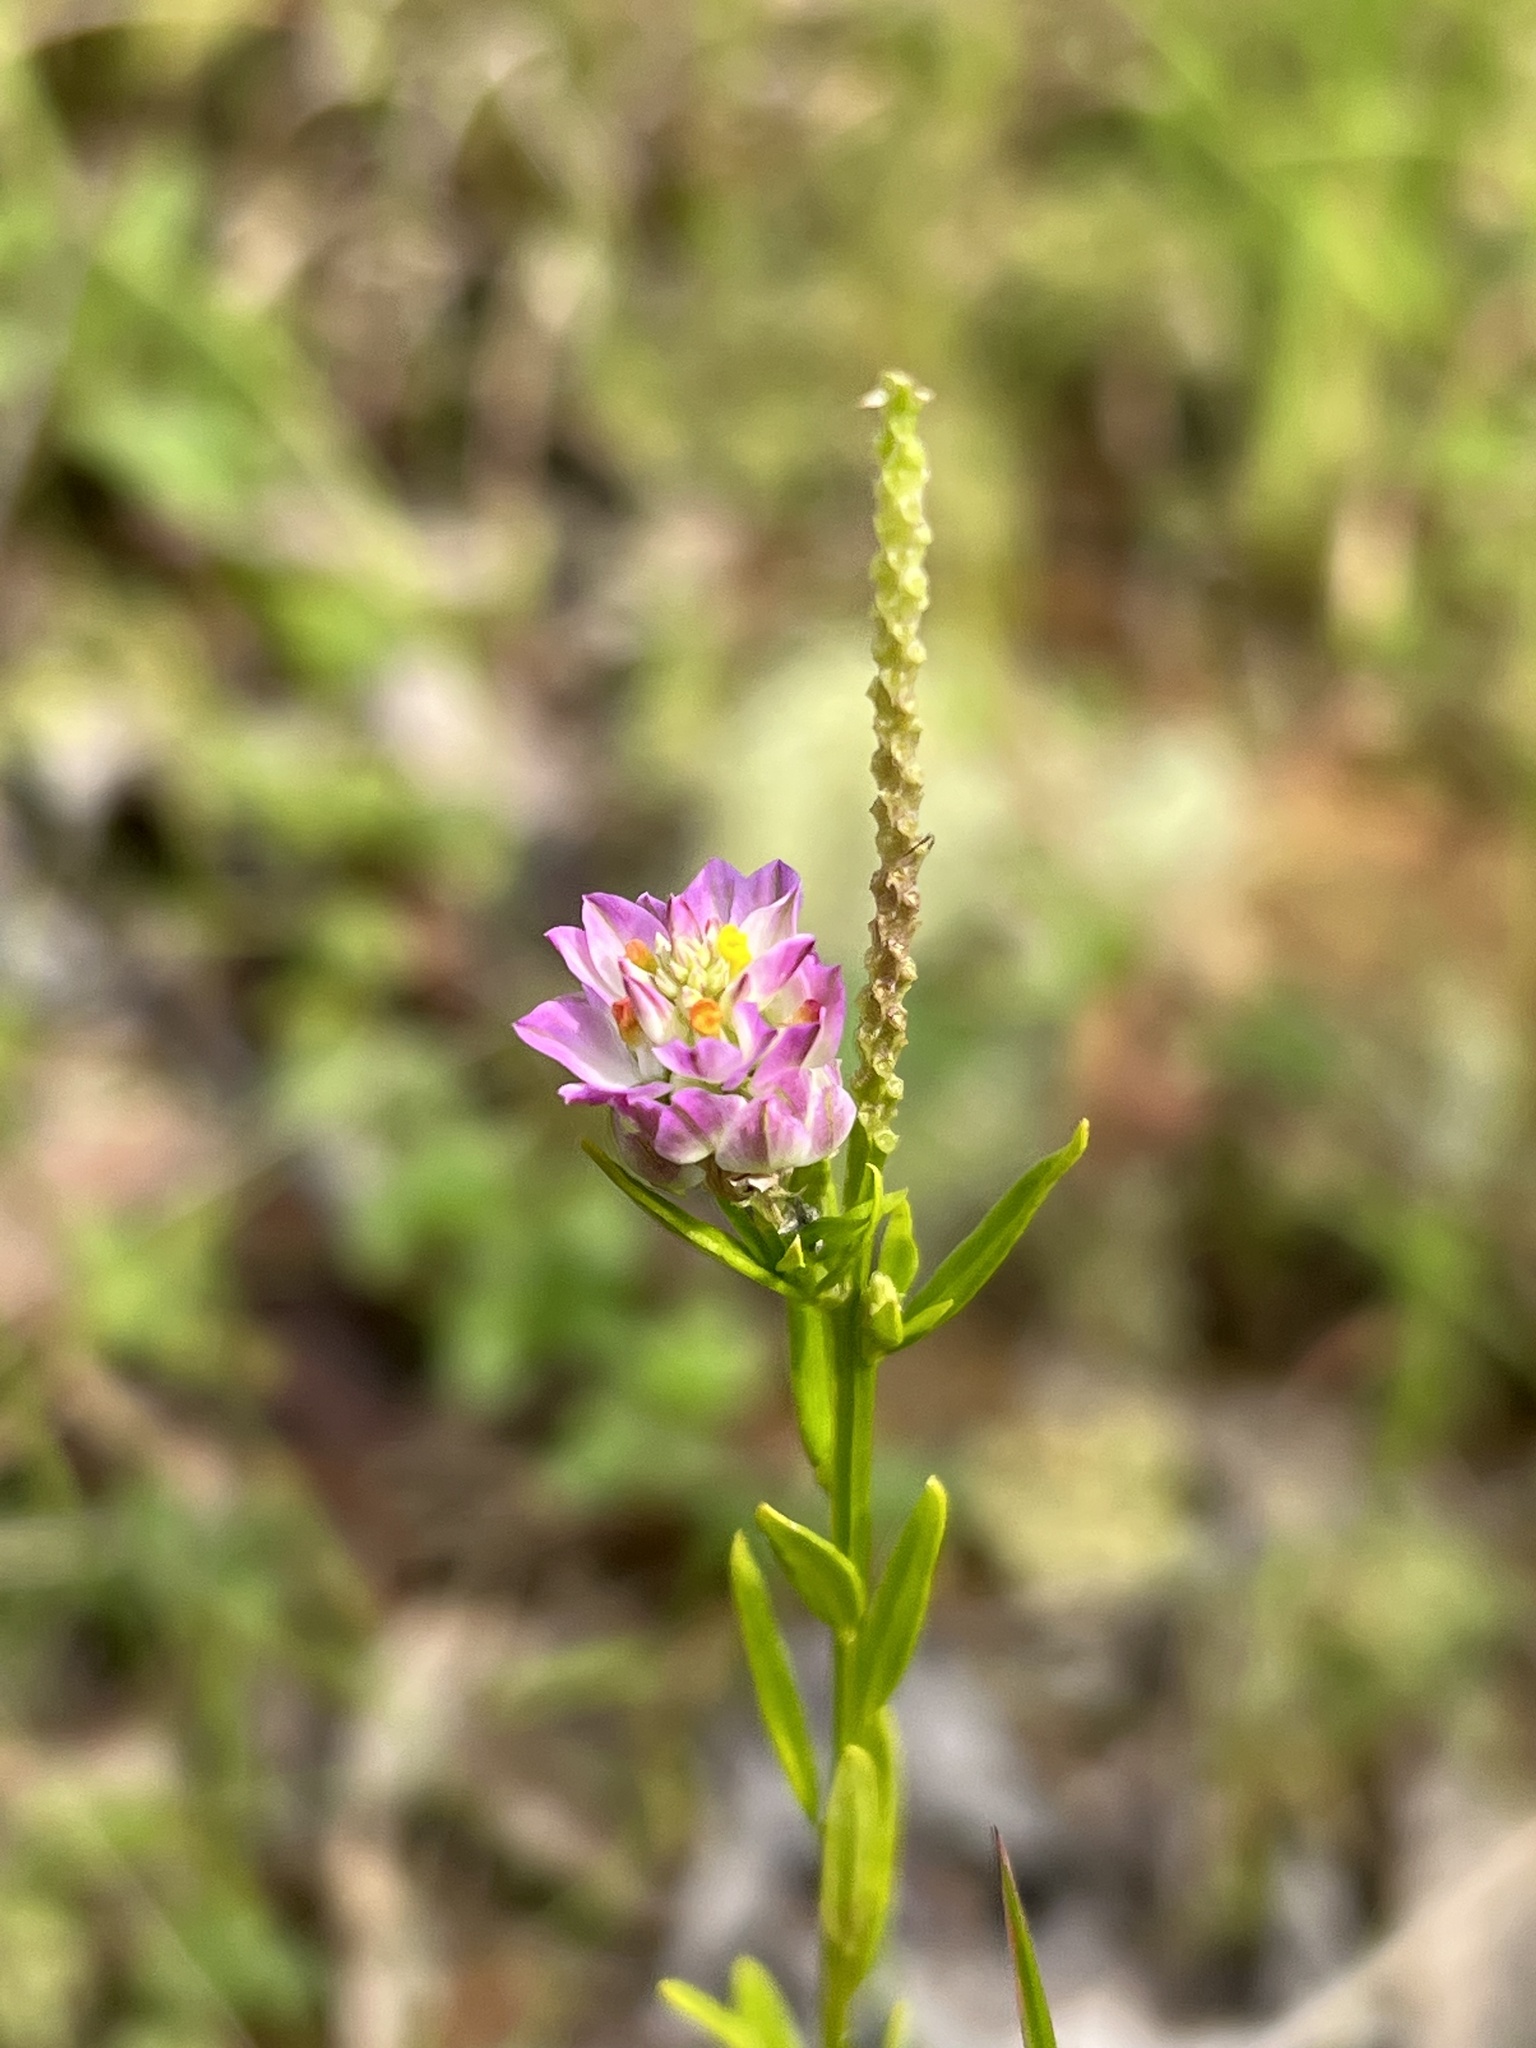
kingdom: Plantae
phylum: Tracheophyta
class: Magnoliopsida
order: Fabales
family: Polygalaceae
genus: Polygala
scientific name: Polygala sanguinea
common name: Blood milkwort
